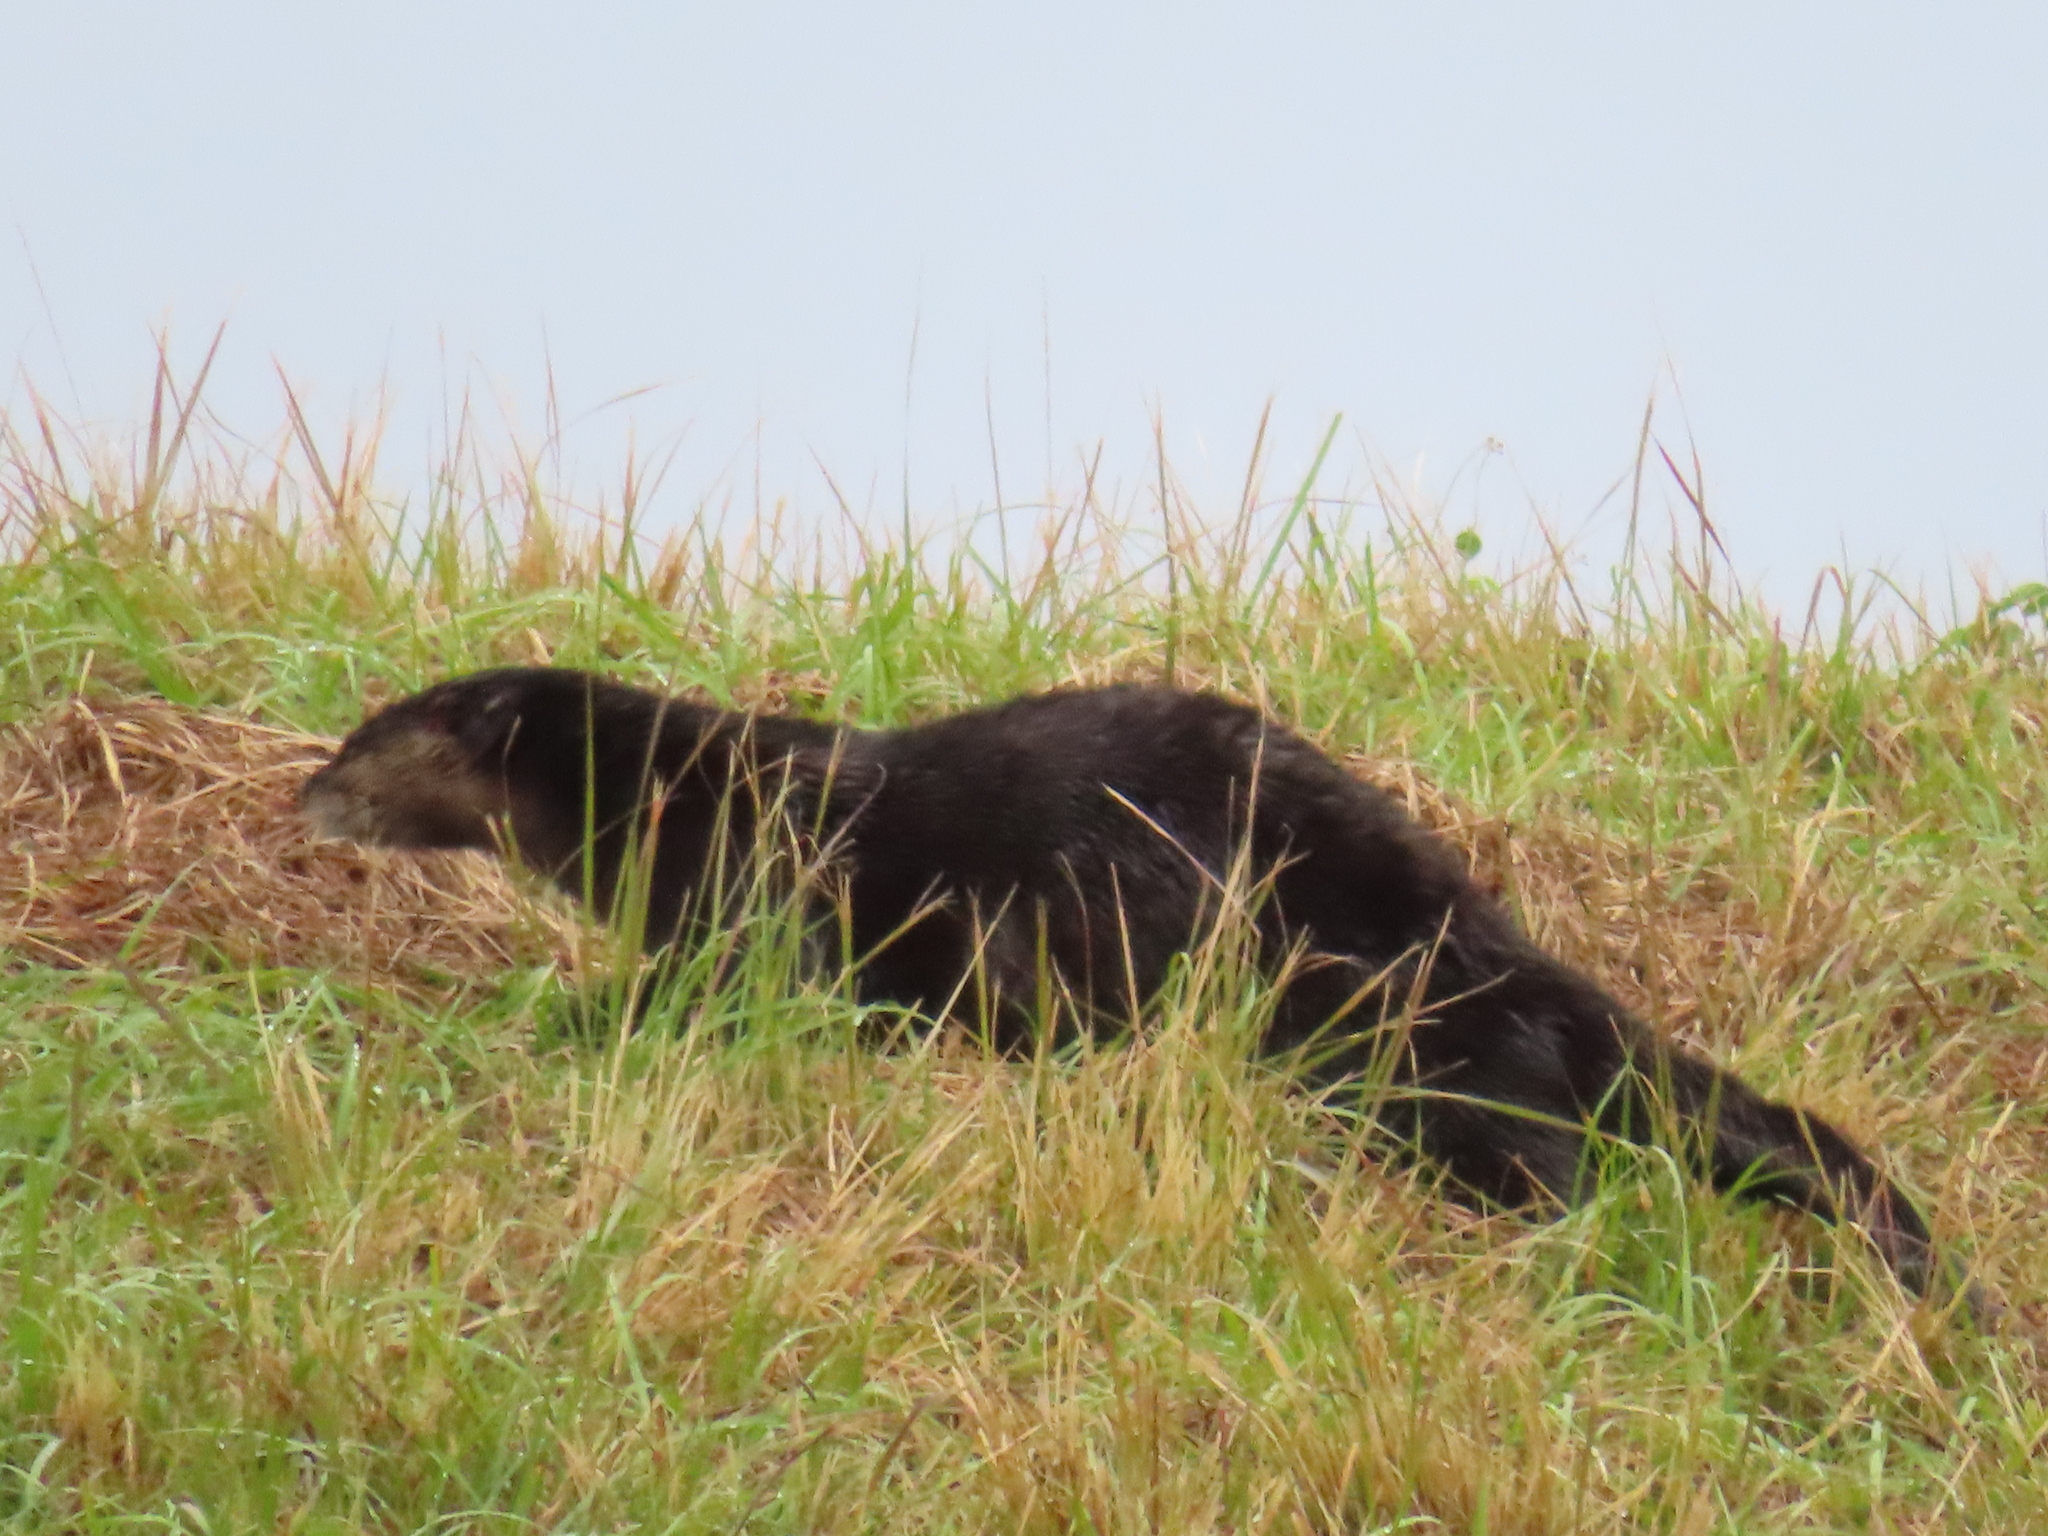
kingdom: Animalia
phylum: Chordata
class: Mammalia
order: Carnivora
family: Mustelidae
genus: Lontra
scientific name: Lontra canadensis
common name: North american river otter
